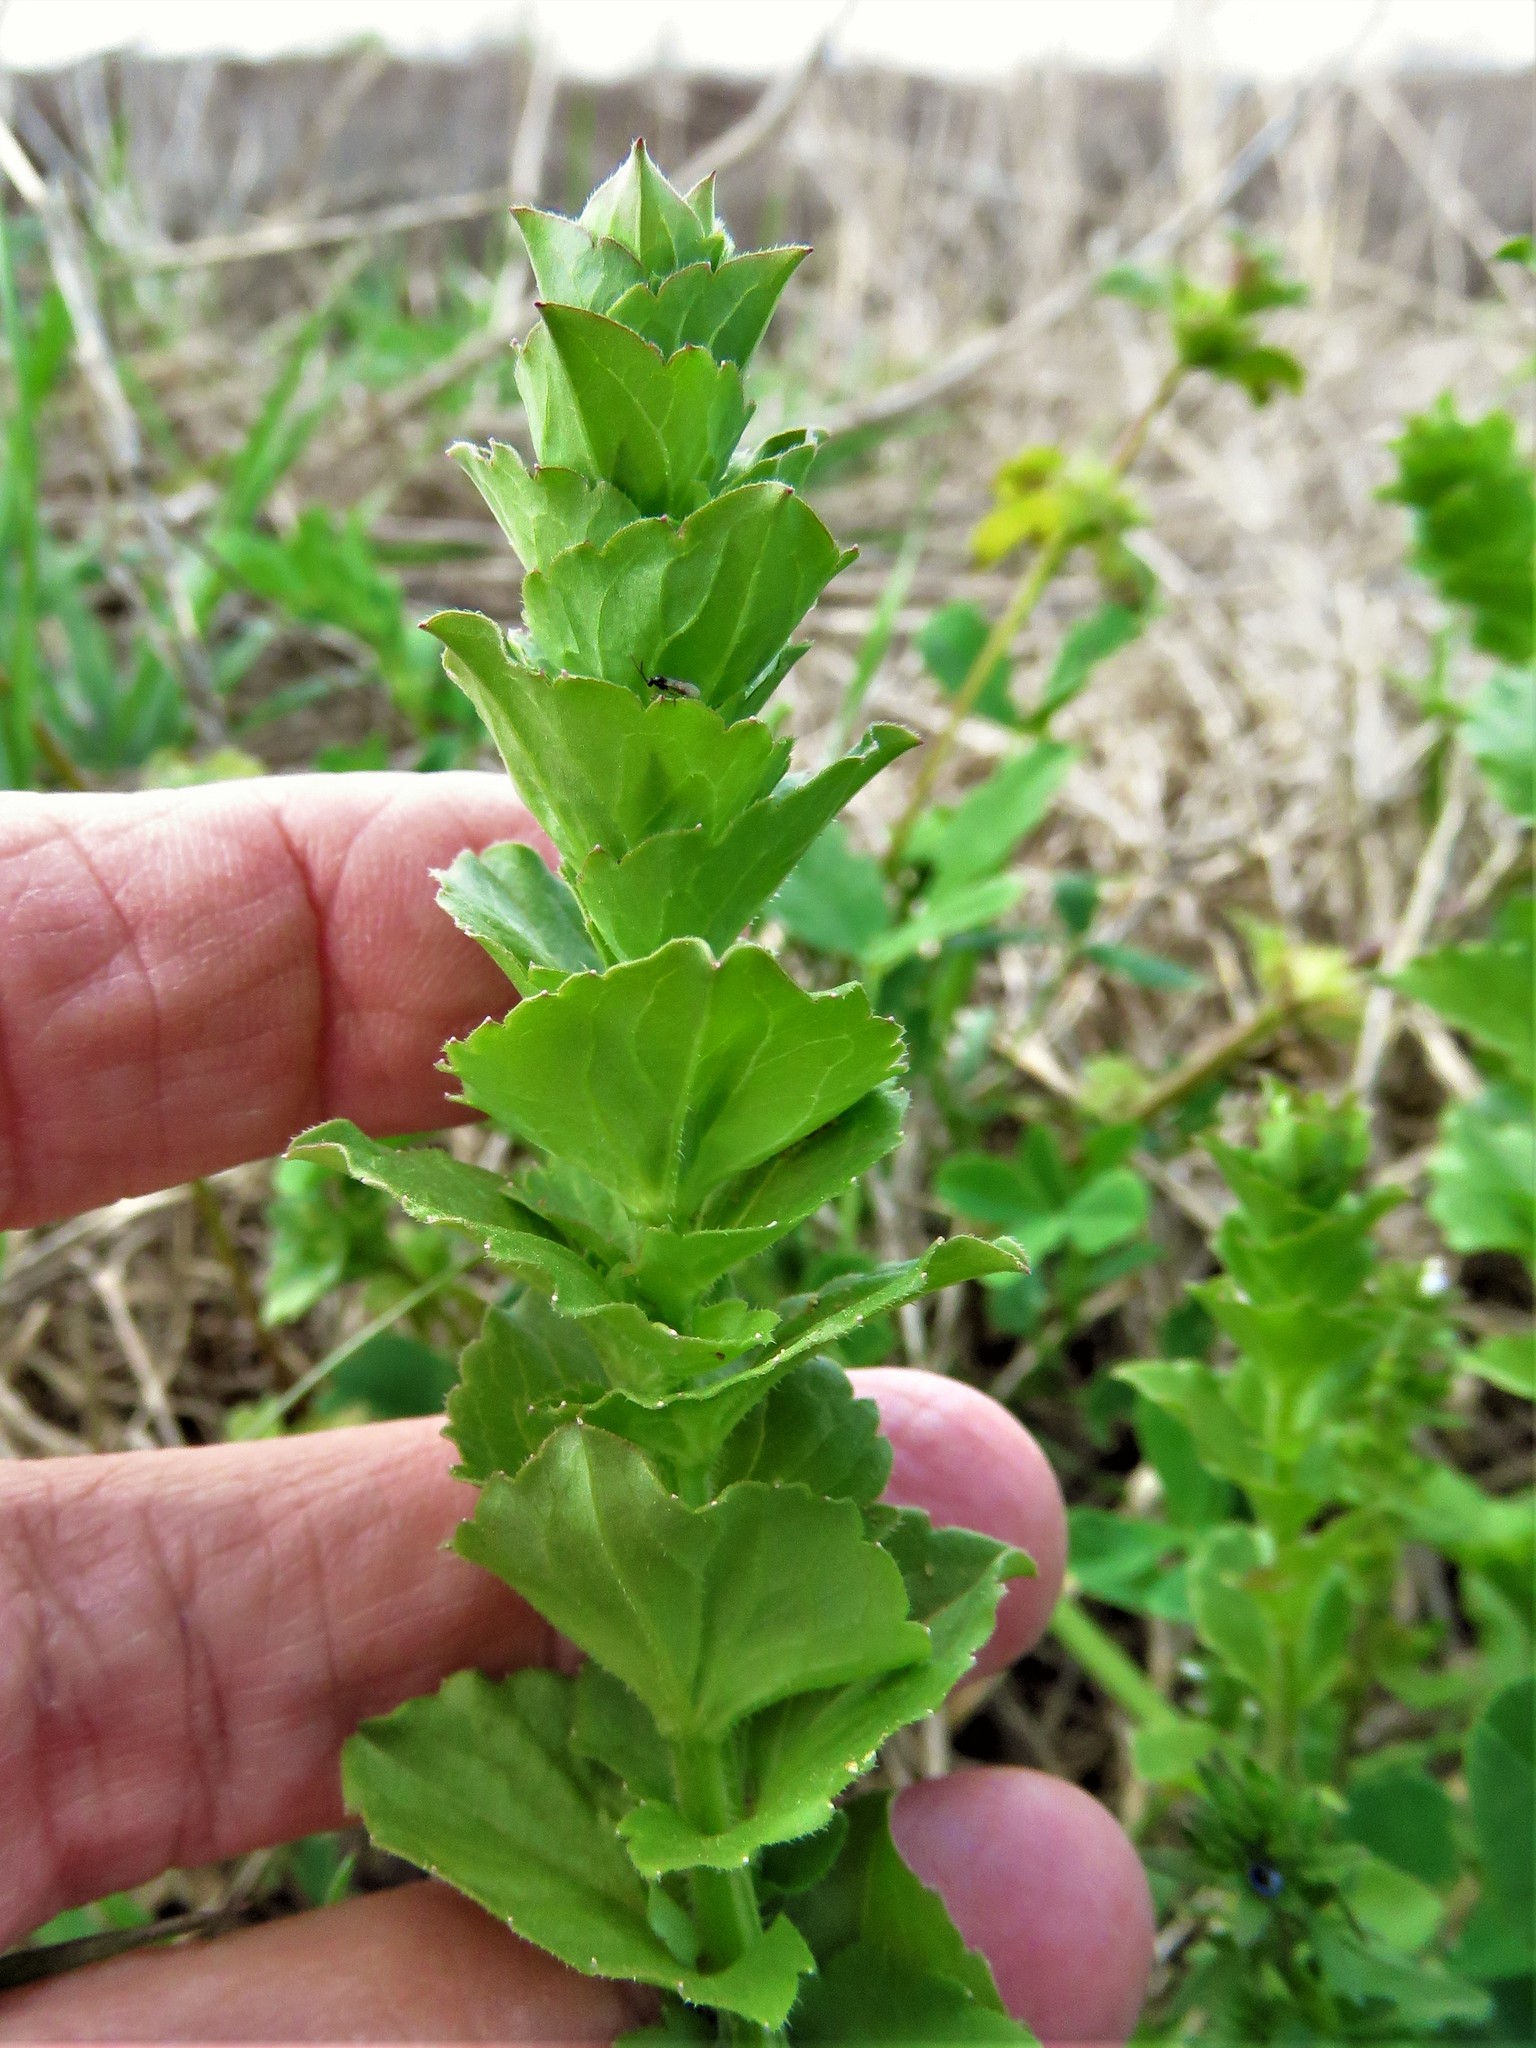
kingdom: Plantae
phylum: Tracheophyta
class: Magnoliopsida
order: Asterales
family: Campanulaceae
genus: Triodanis
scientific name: Triodanis perfoliata
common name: Clasping venus' looking-glass
